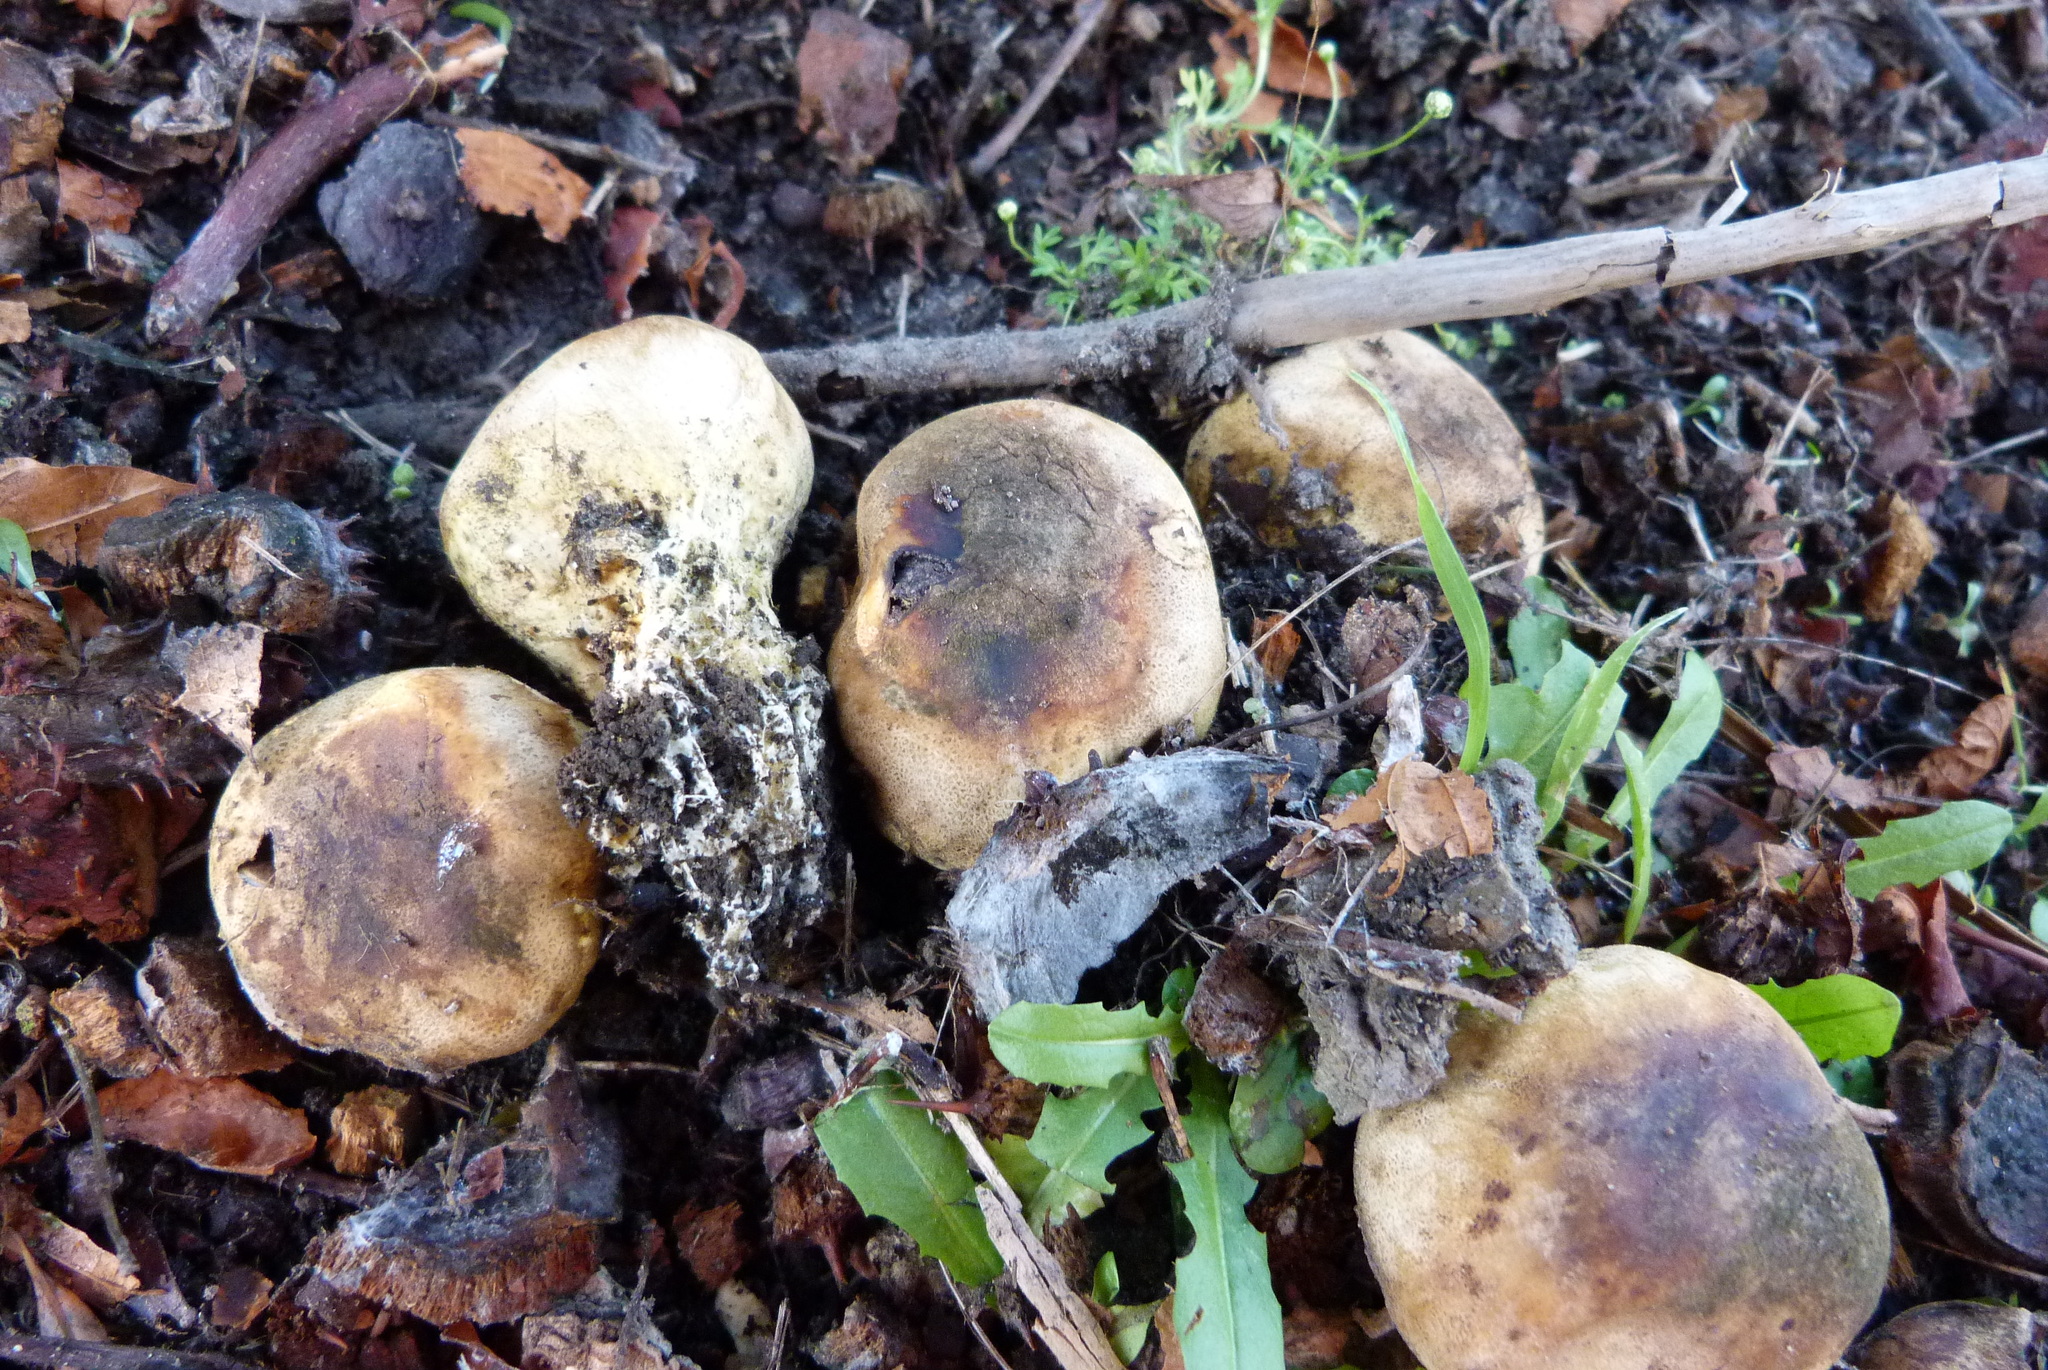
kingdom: Fungi
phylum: Basidiomycota
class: Agaricomycetes
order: Boletales
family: Sclerodermataceae
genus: Scleroderma
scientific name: Scleroderma bovista
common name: Potato earthball
